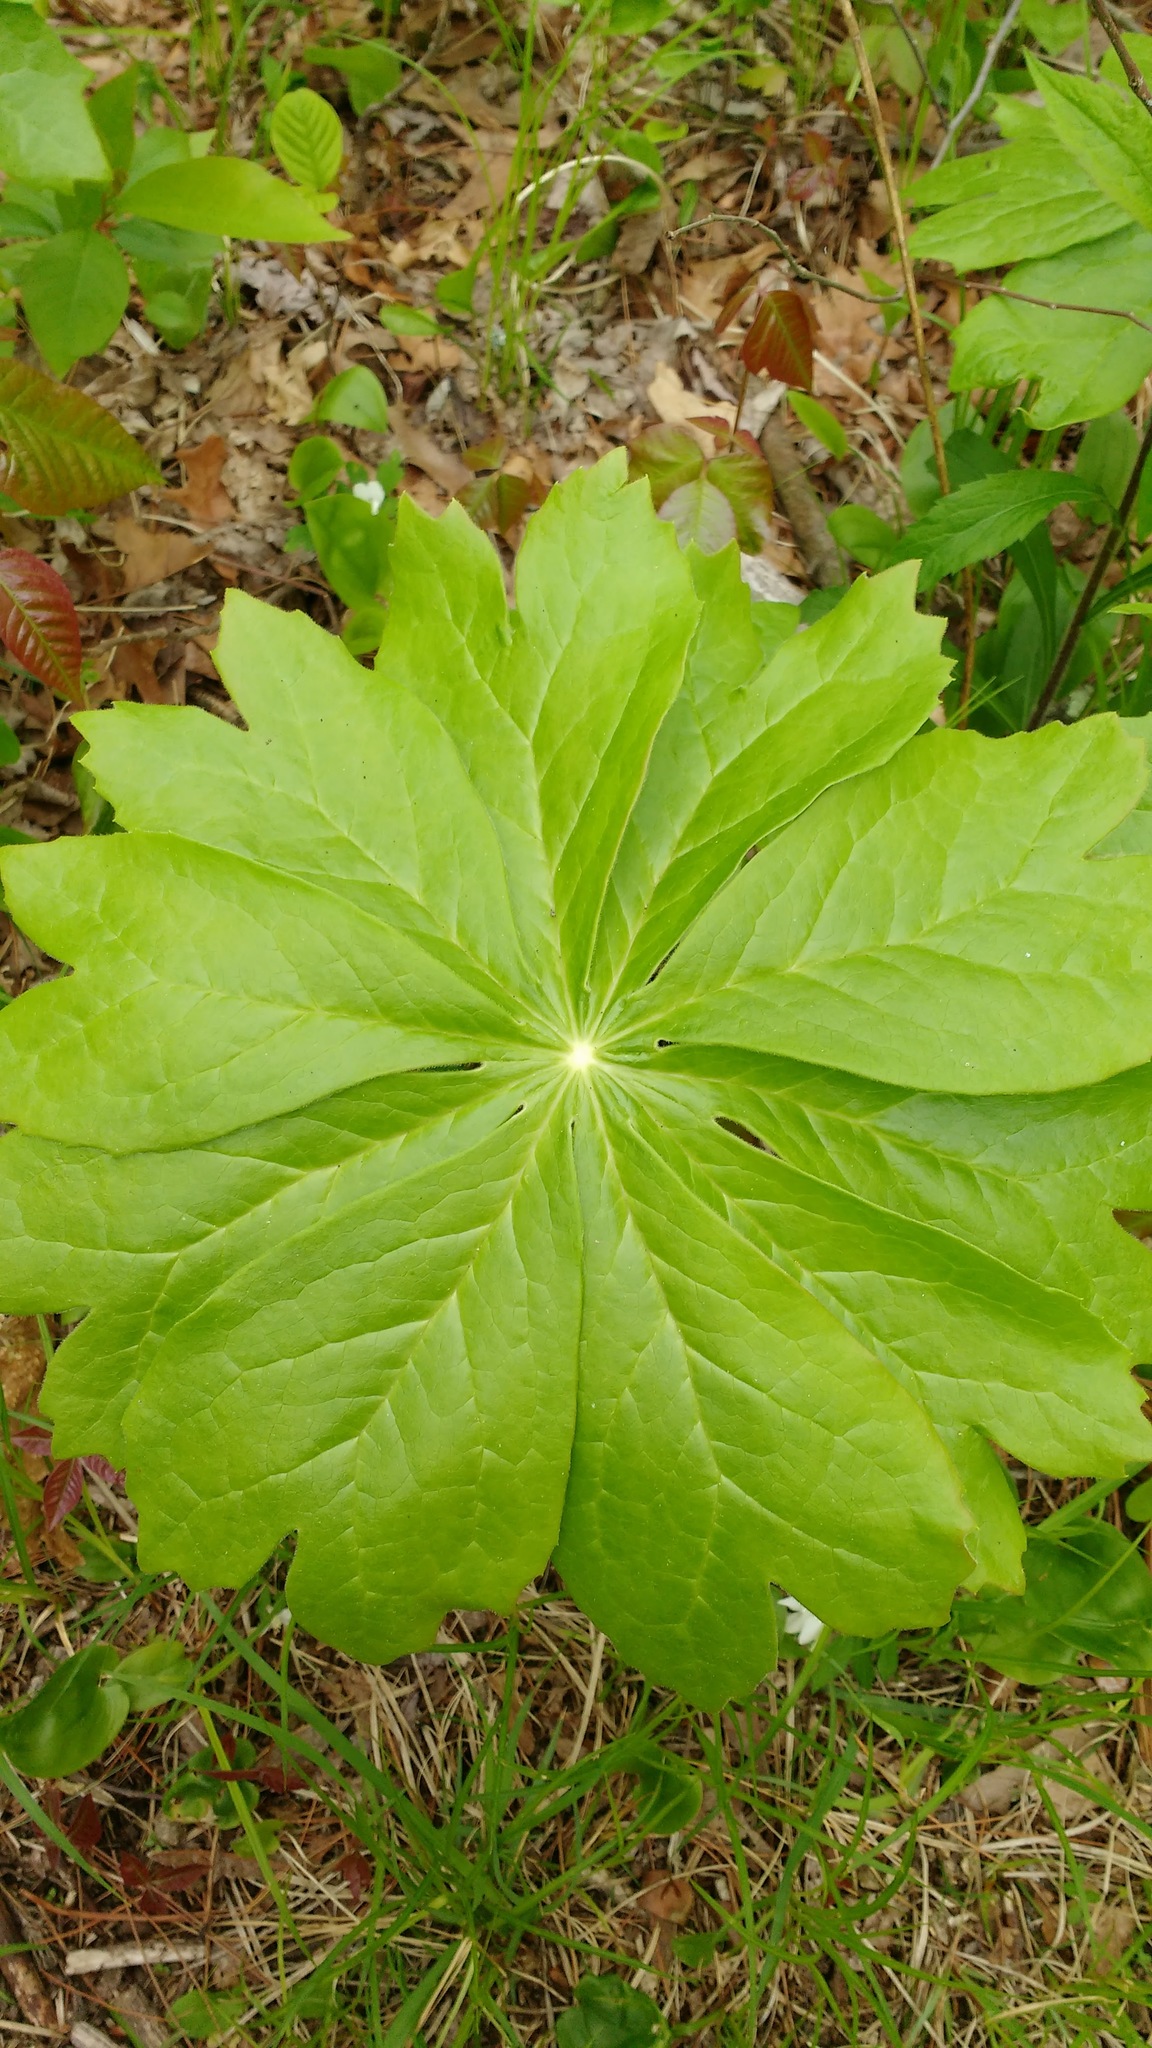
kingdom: Plantae
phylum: Tracheophyta
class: Magnoliopsida
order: Ranunculales
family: Berberidaceae
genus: Podophyllum
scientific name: Podophyllum peltatum
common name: Wild mandrake
